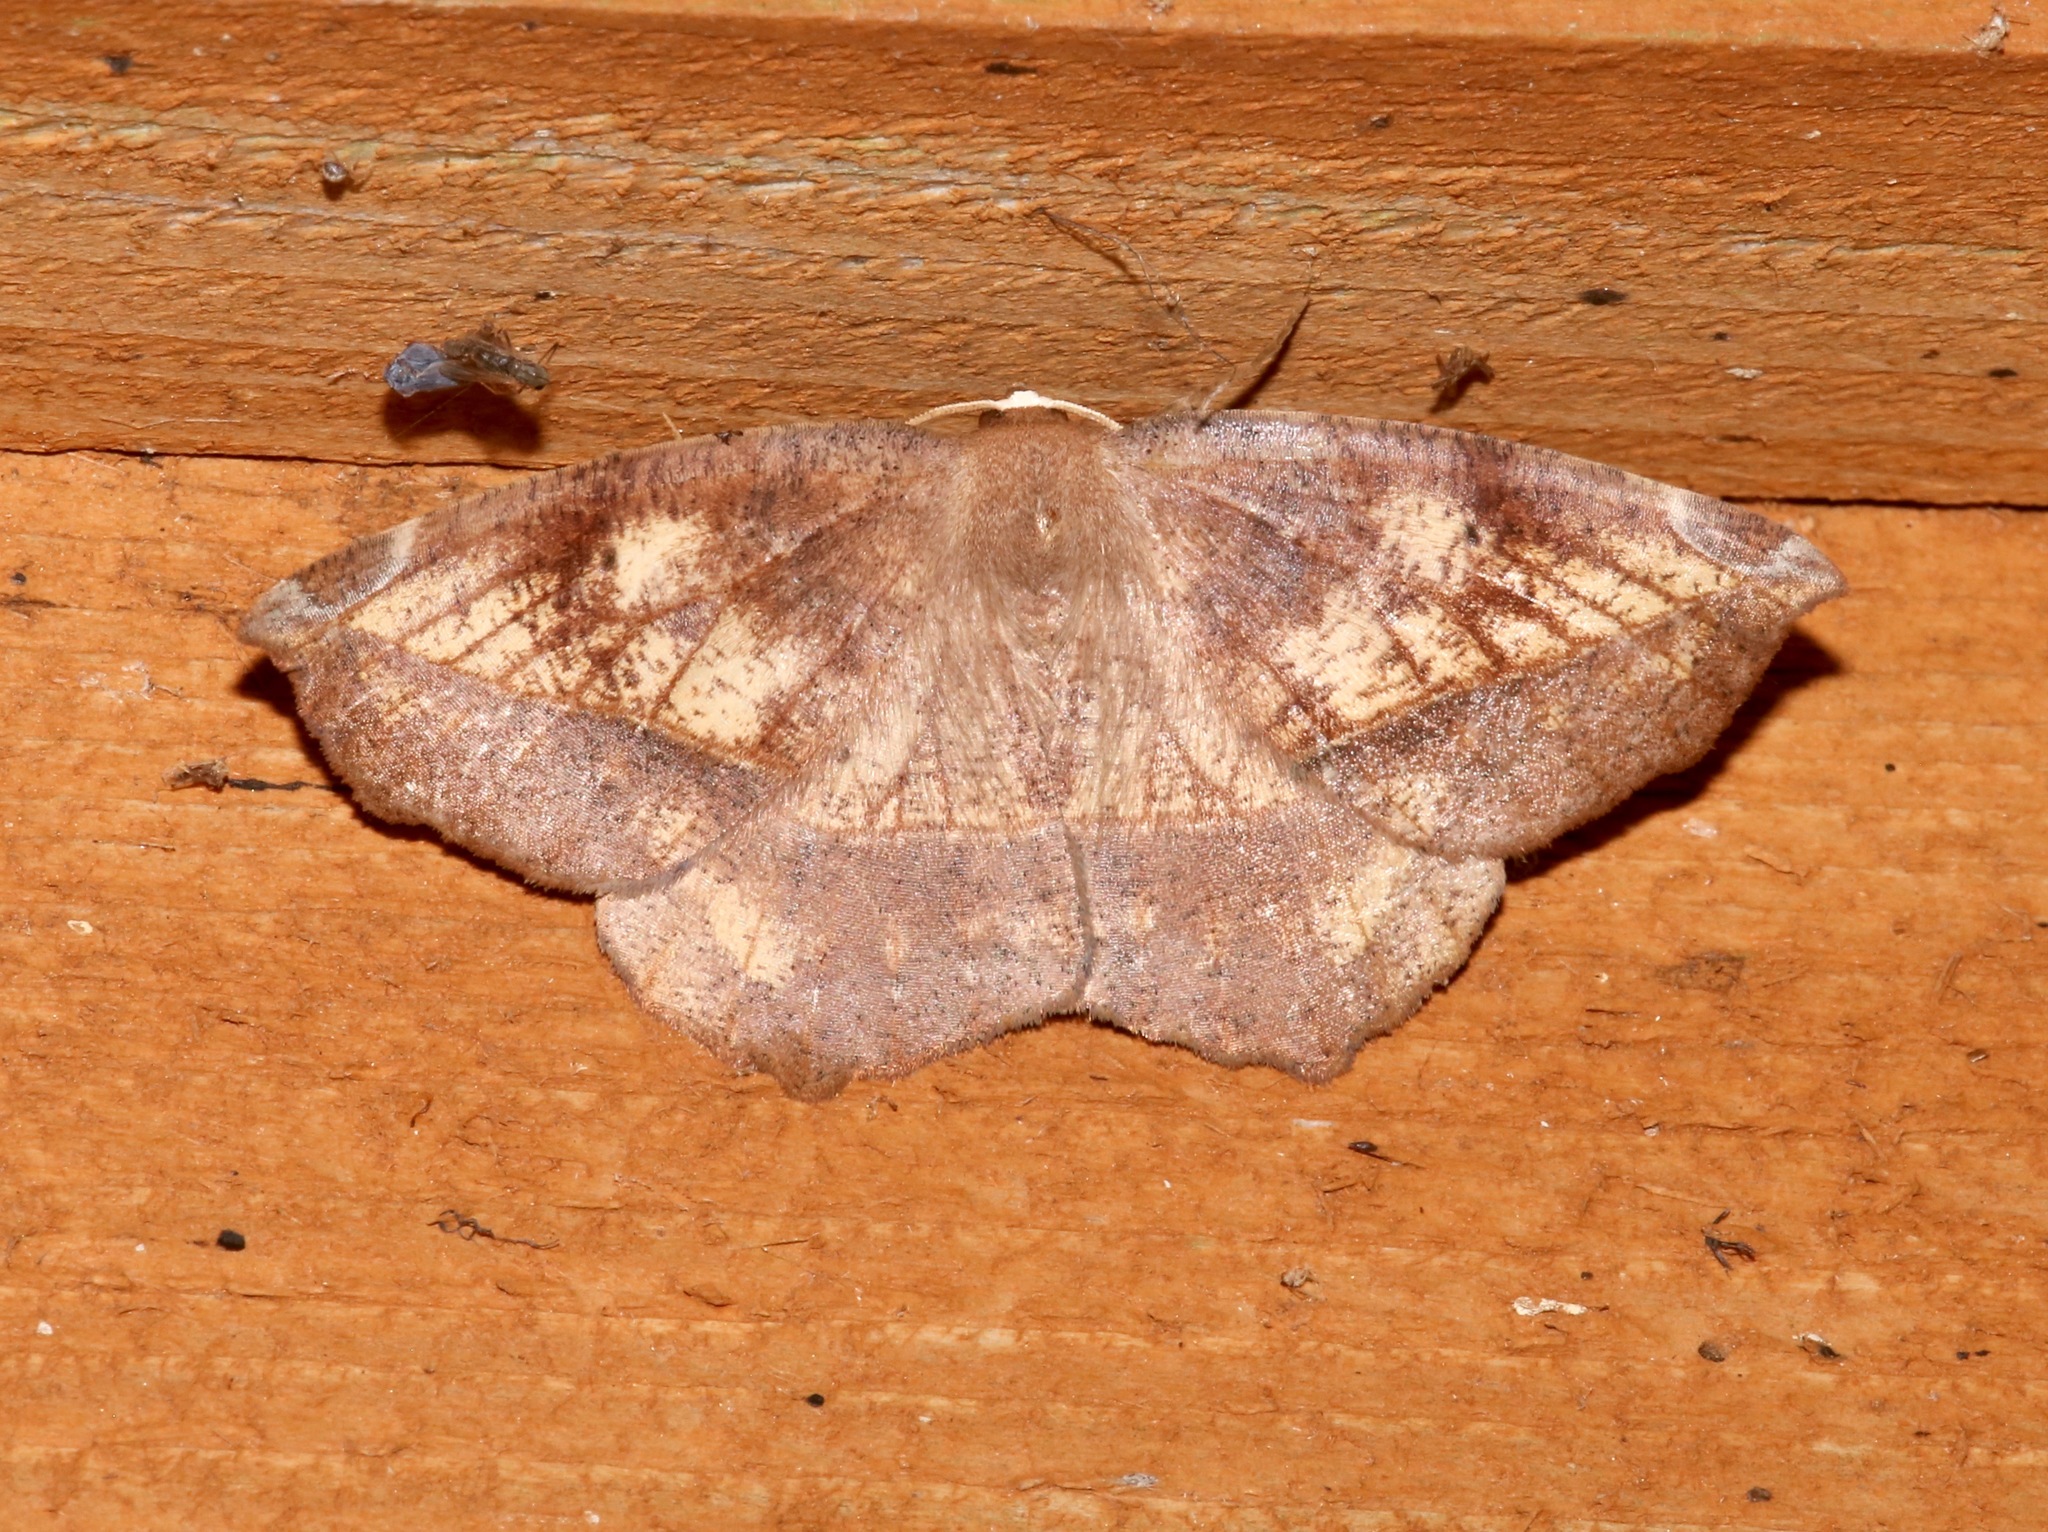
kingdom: Animalia
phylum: Arthropoda
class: Insecta
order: Lepidoptera
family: Geometridae
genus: Eutrapela
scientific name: Eutrapela clemataria
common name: Curved-toothed geometer
